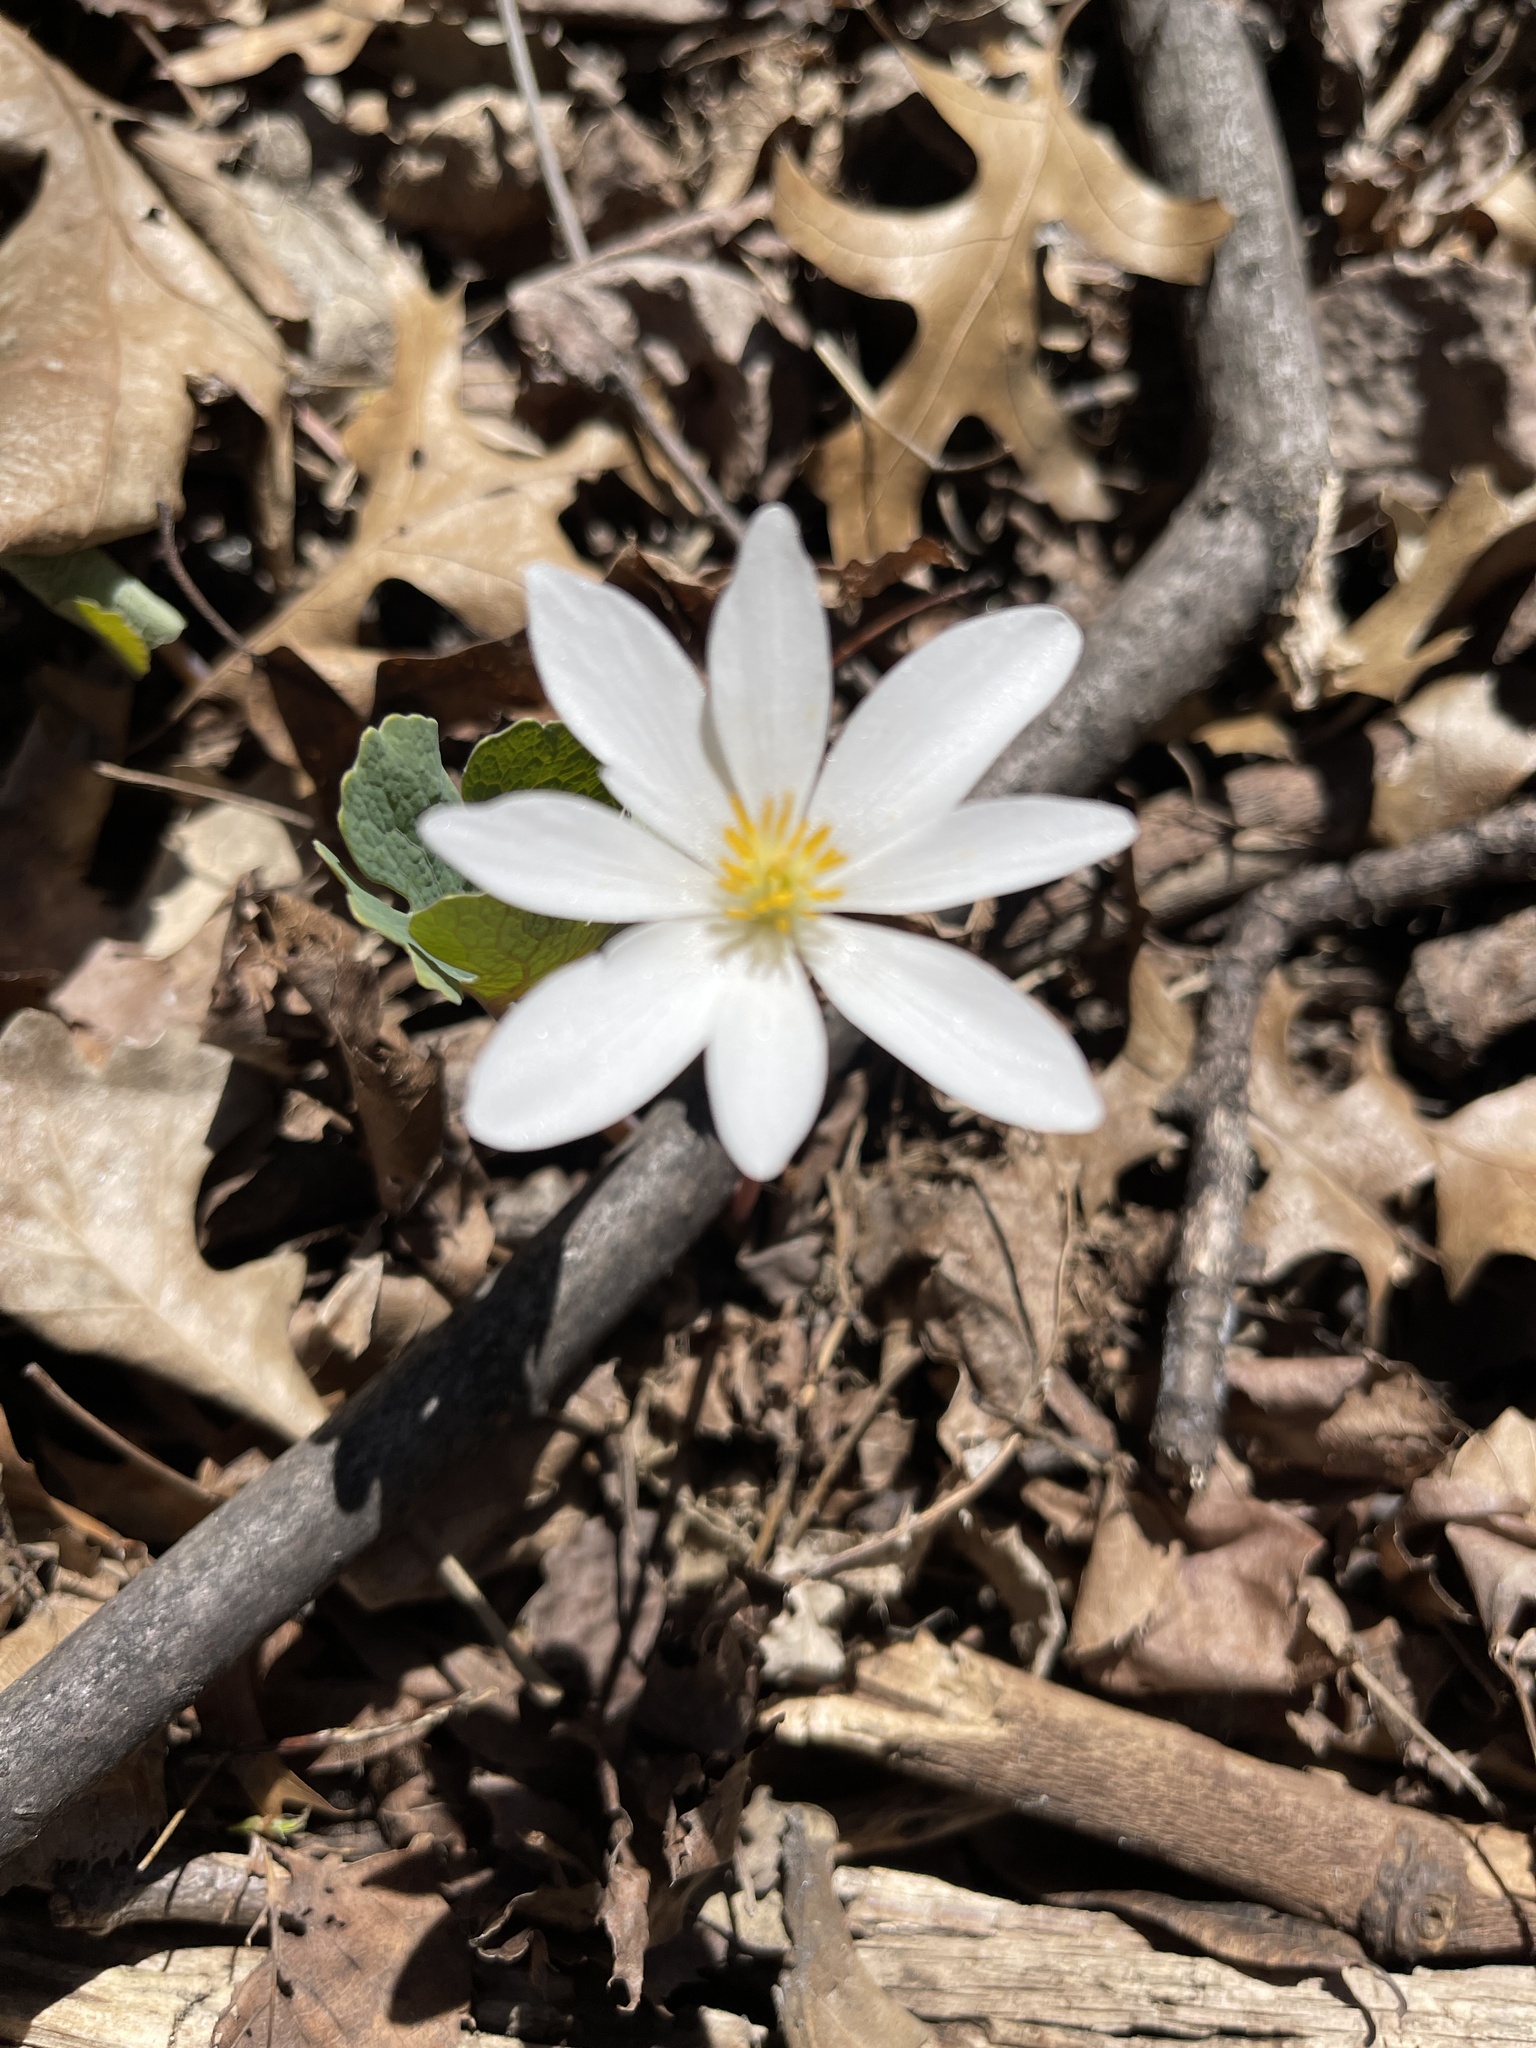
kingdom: Plantae
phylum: Tracheophyta
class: Magnoliopsida
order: Ranunculales
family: Papaveraceae
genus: Sanguinaria
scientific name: Sanguinaria canadensis
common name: Bloodroot
